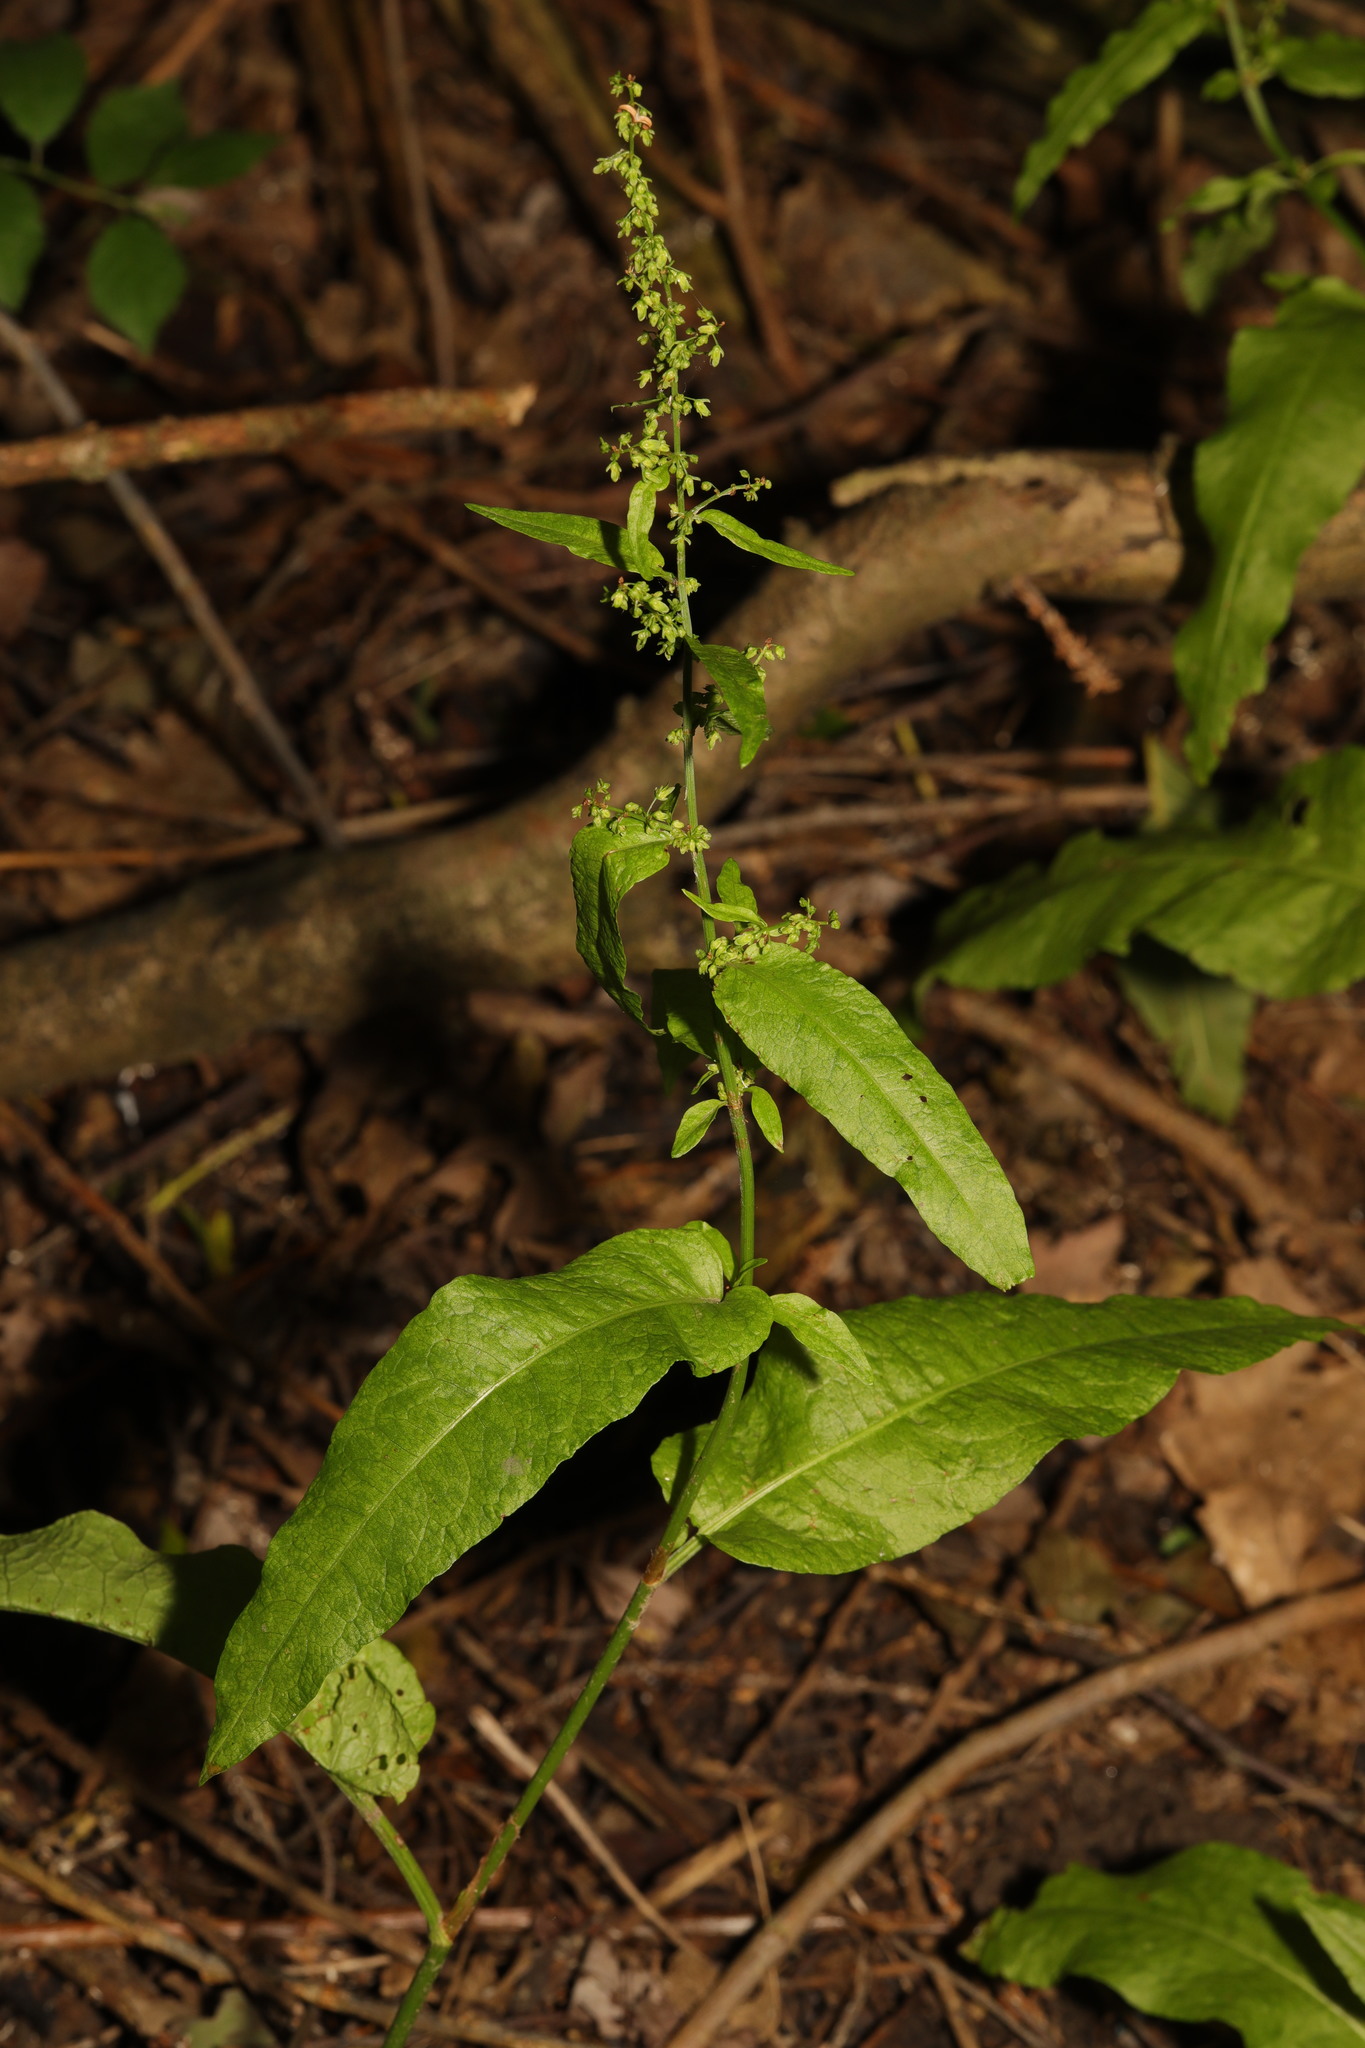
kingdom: Plantae
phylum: Tracheophyta
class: Magnoliopsida
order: Caryophyllales
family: Polygonaceae
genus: Rumex
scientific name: Rumex conglomeratus
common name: Clustered dock
